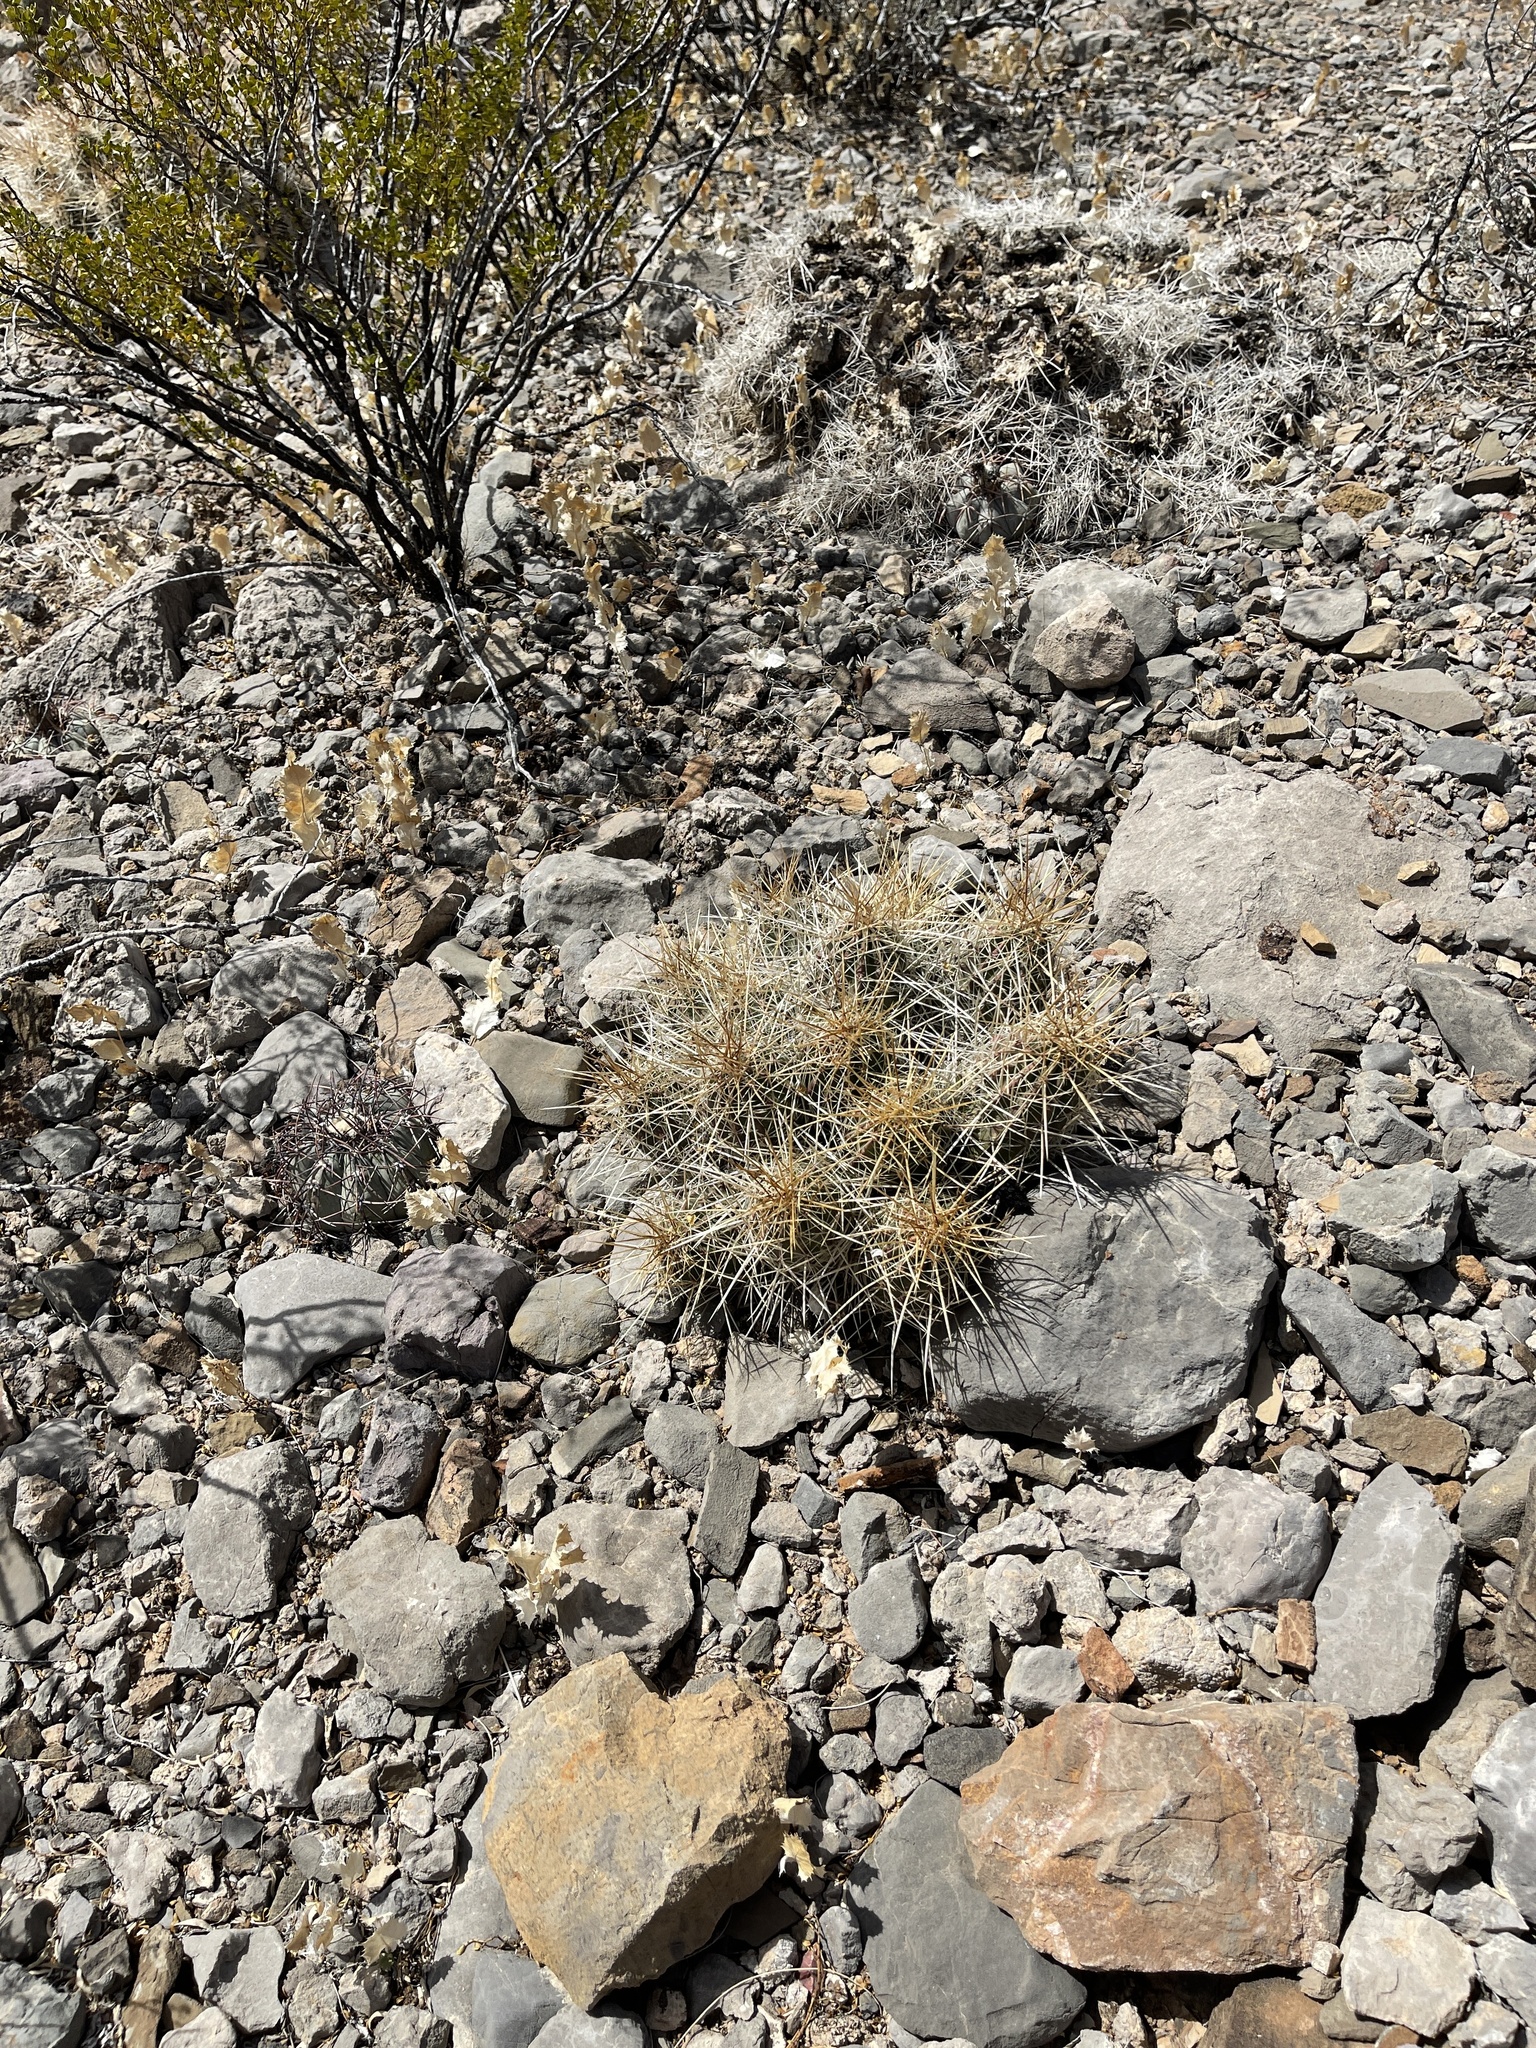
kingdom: Plantae
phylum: Tracheophyta
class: Magnoliopsida
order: Caryophyllales
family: Cactaceae
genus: Echinocereus
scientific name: Echinocereus stramineus
